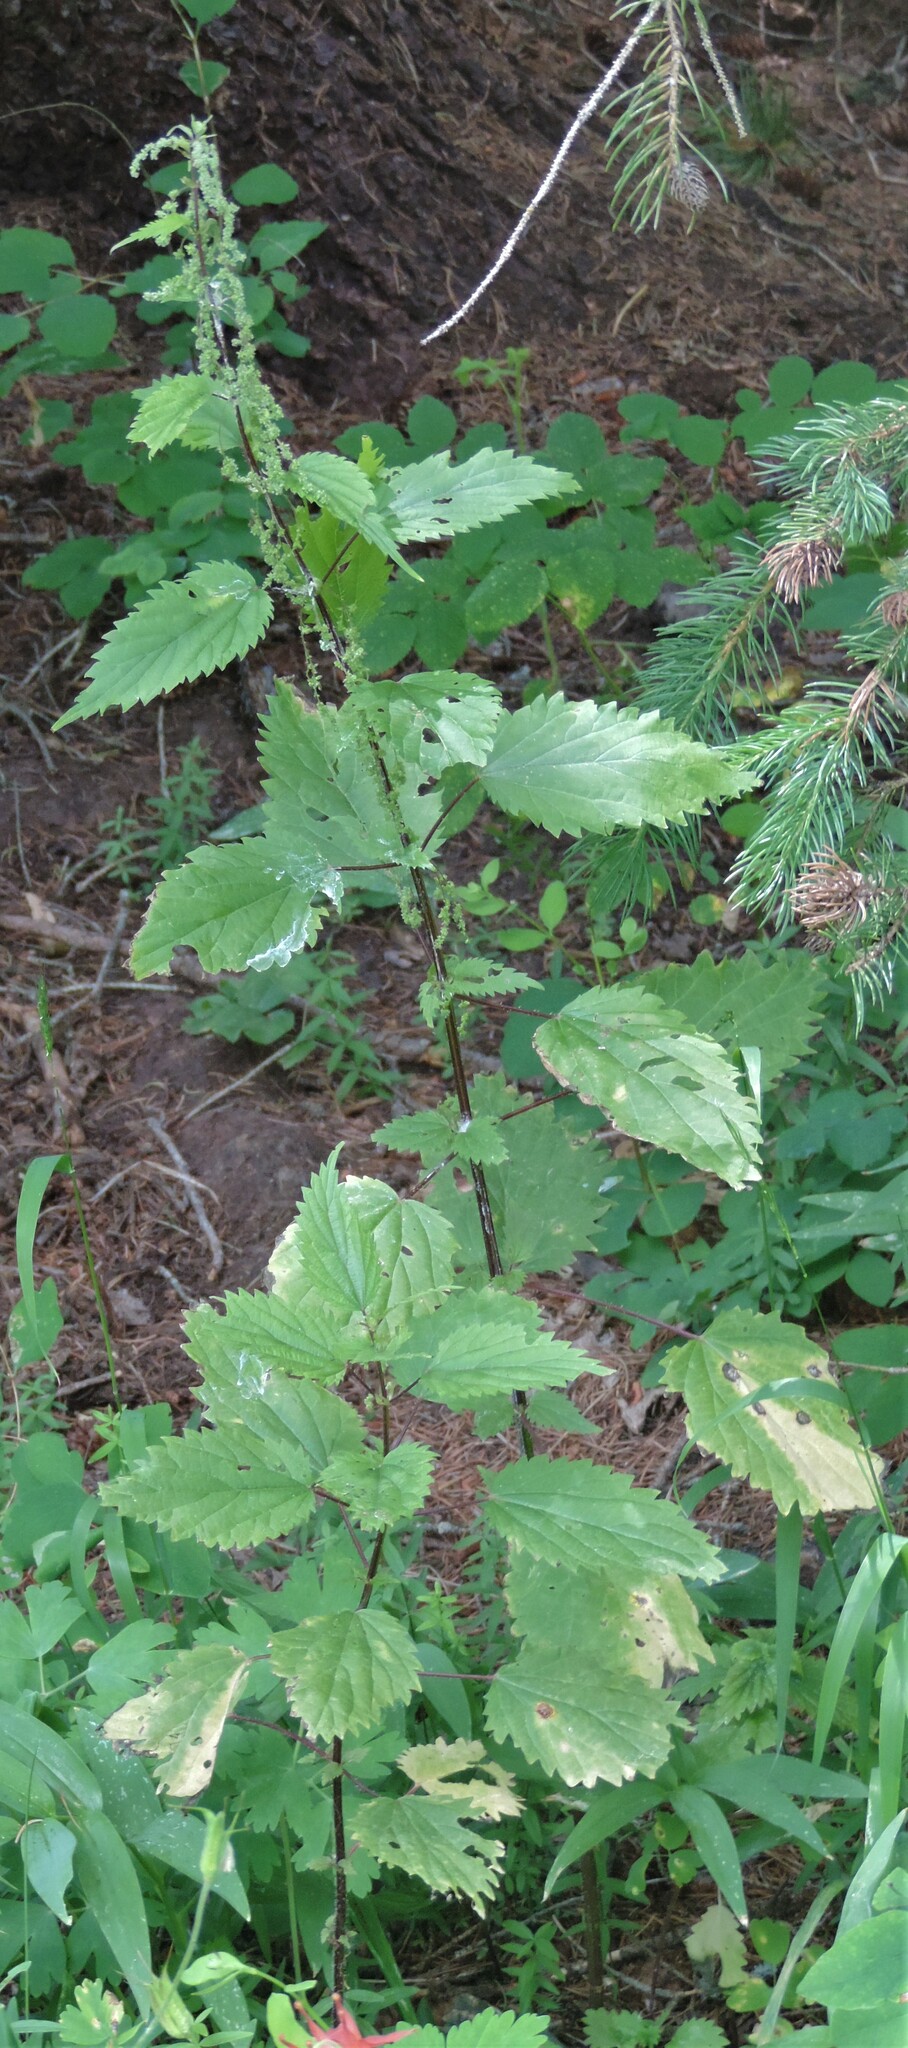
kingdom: Plantae
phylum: Tracheophyta
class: Magnoliopsida
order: Rosales
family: Urticaceae
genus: Urtica
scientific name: Urtica gracilis
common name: Slender stinging nettle
